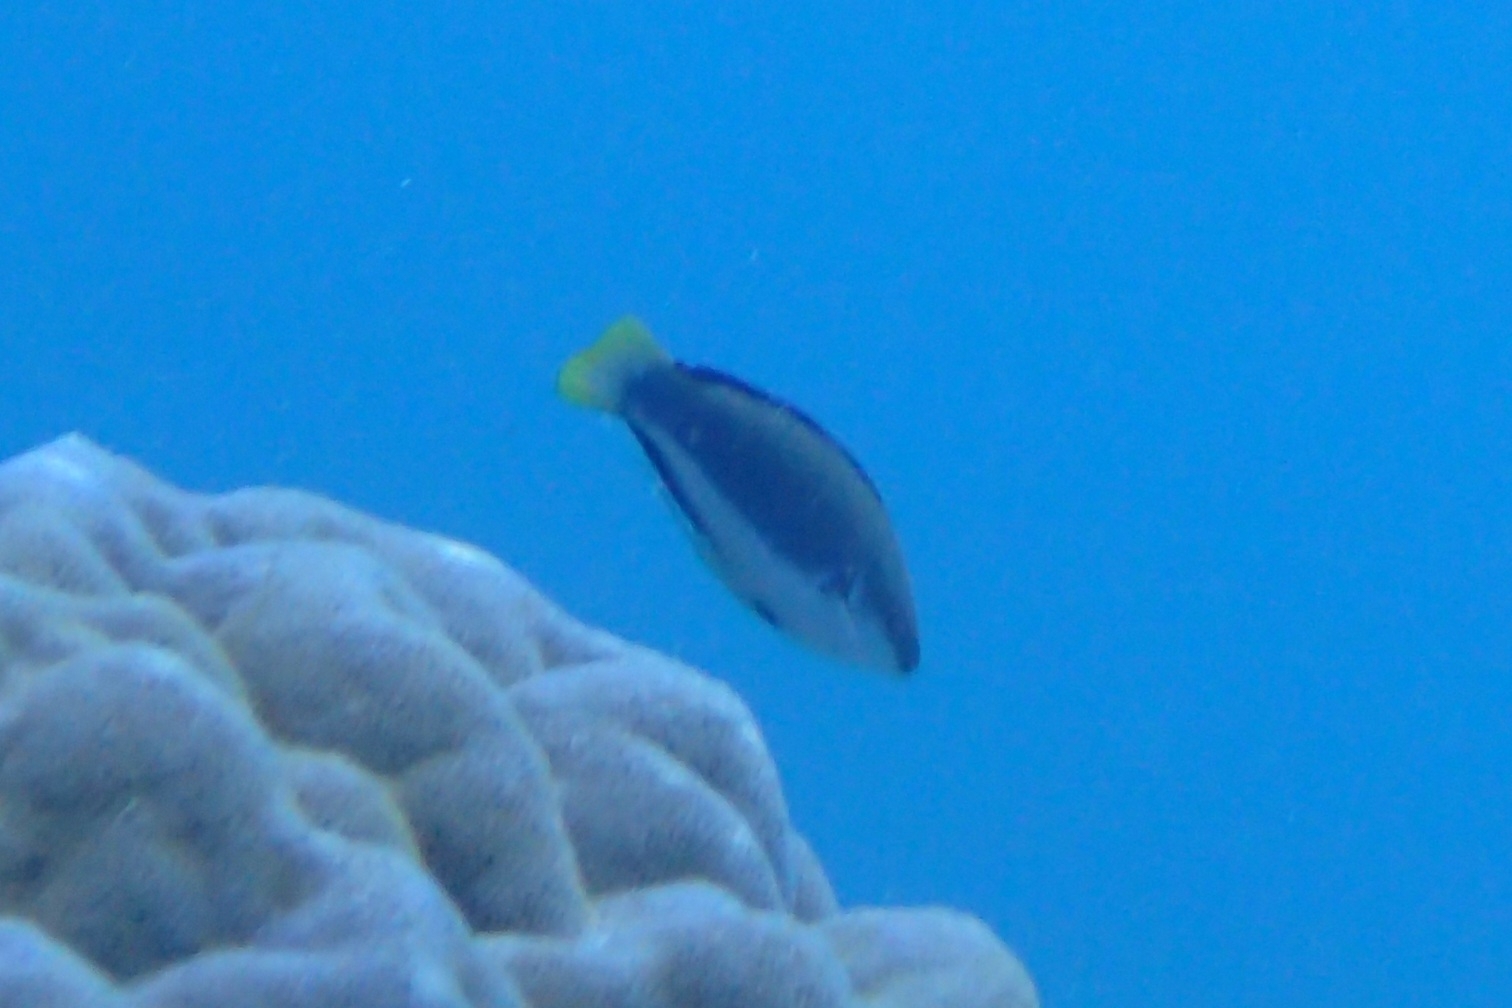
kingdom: Animalia
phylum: Chordata
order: Perciformes
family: Labridae
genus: Cirrhilabrus
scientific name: Cirrhilabrus punctatus
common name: Dotted wrasse
